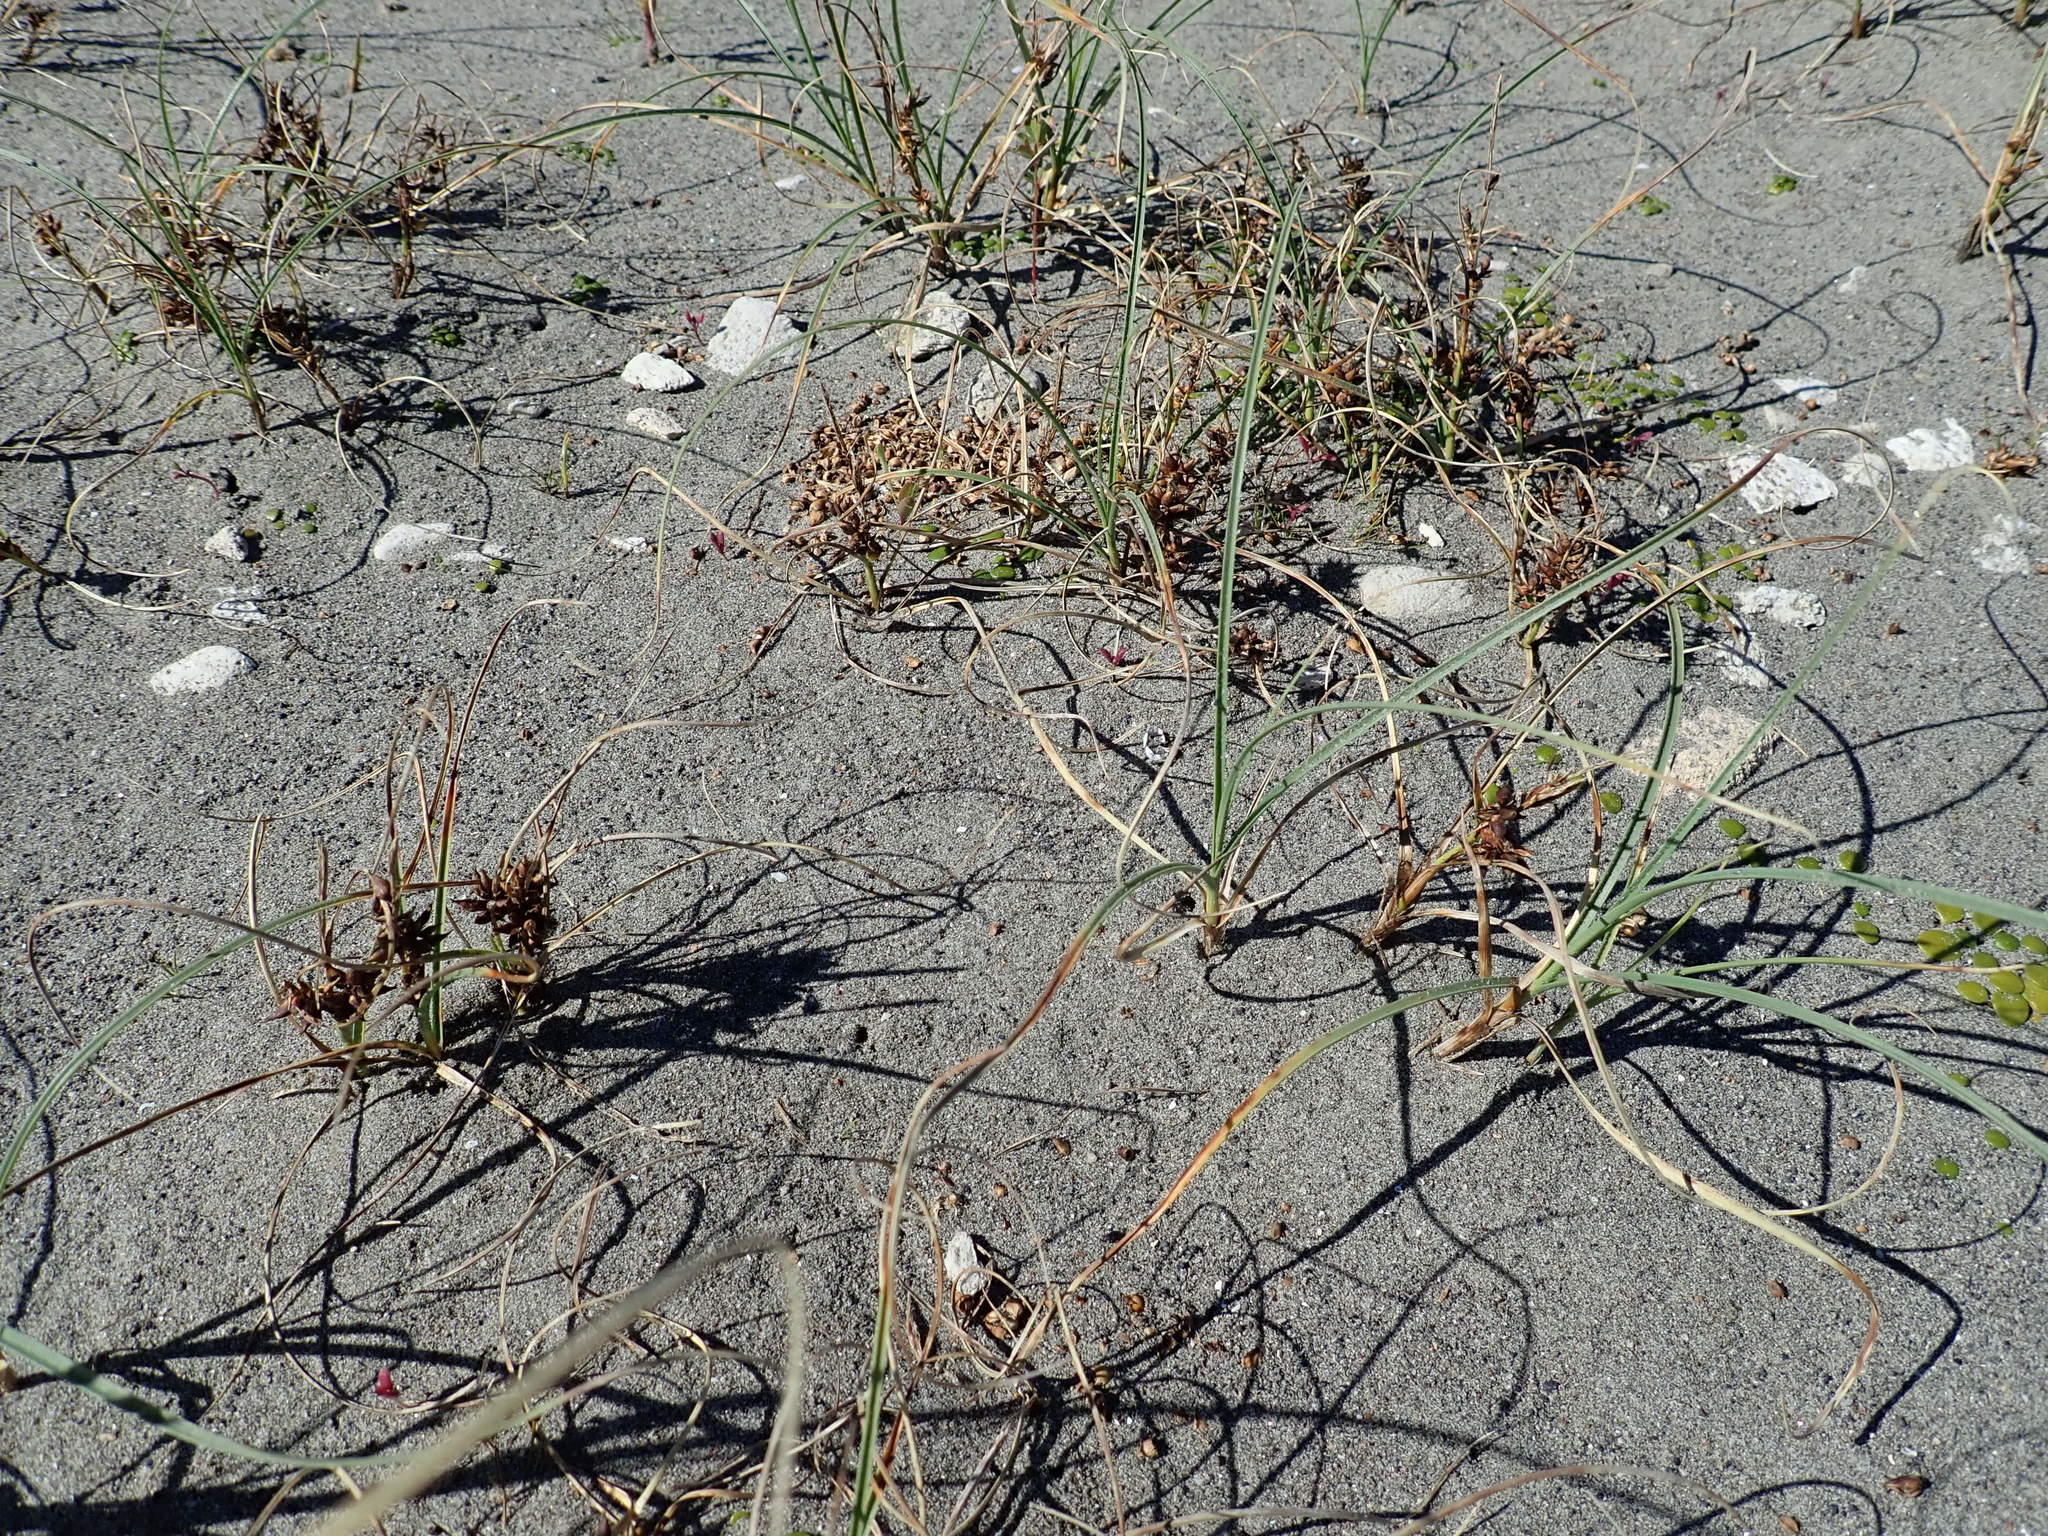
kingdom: Plantae
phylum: Tracheophyta
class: Liliopsida
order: Poales
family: Cyperaceae
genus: Carex
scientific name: Carex pumila
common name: Dwarf sedge
